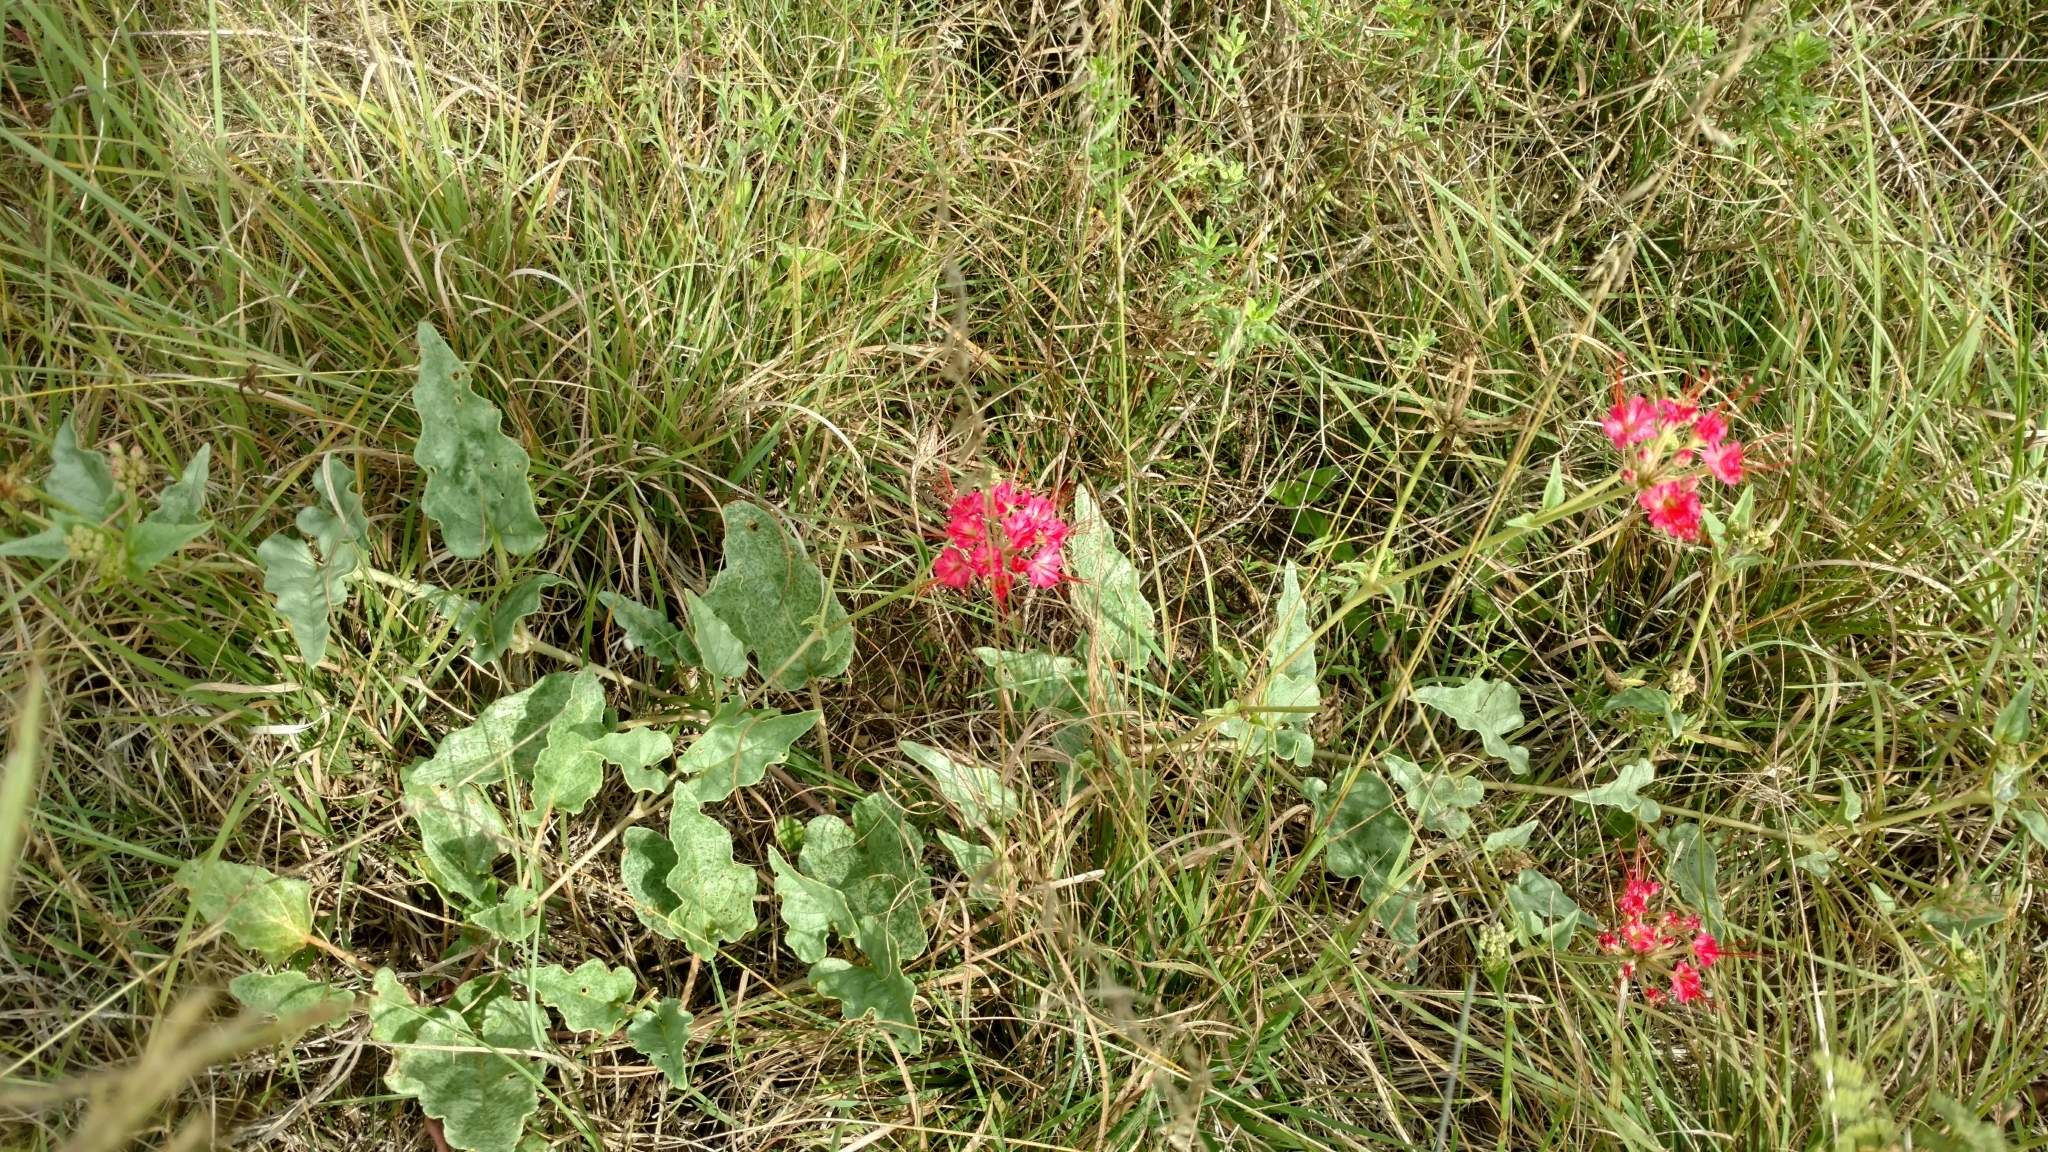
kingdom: Plantae
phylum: Tracheophyta
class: Magnoliopsida
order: Caryophyllales
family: Nyctaginaceae
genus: Nyctaginia
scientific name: Nyctaginia capitata
